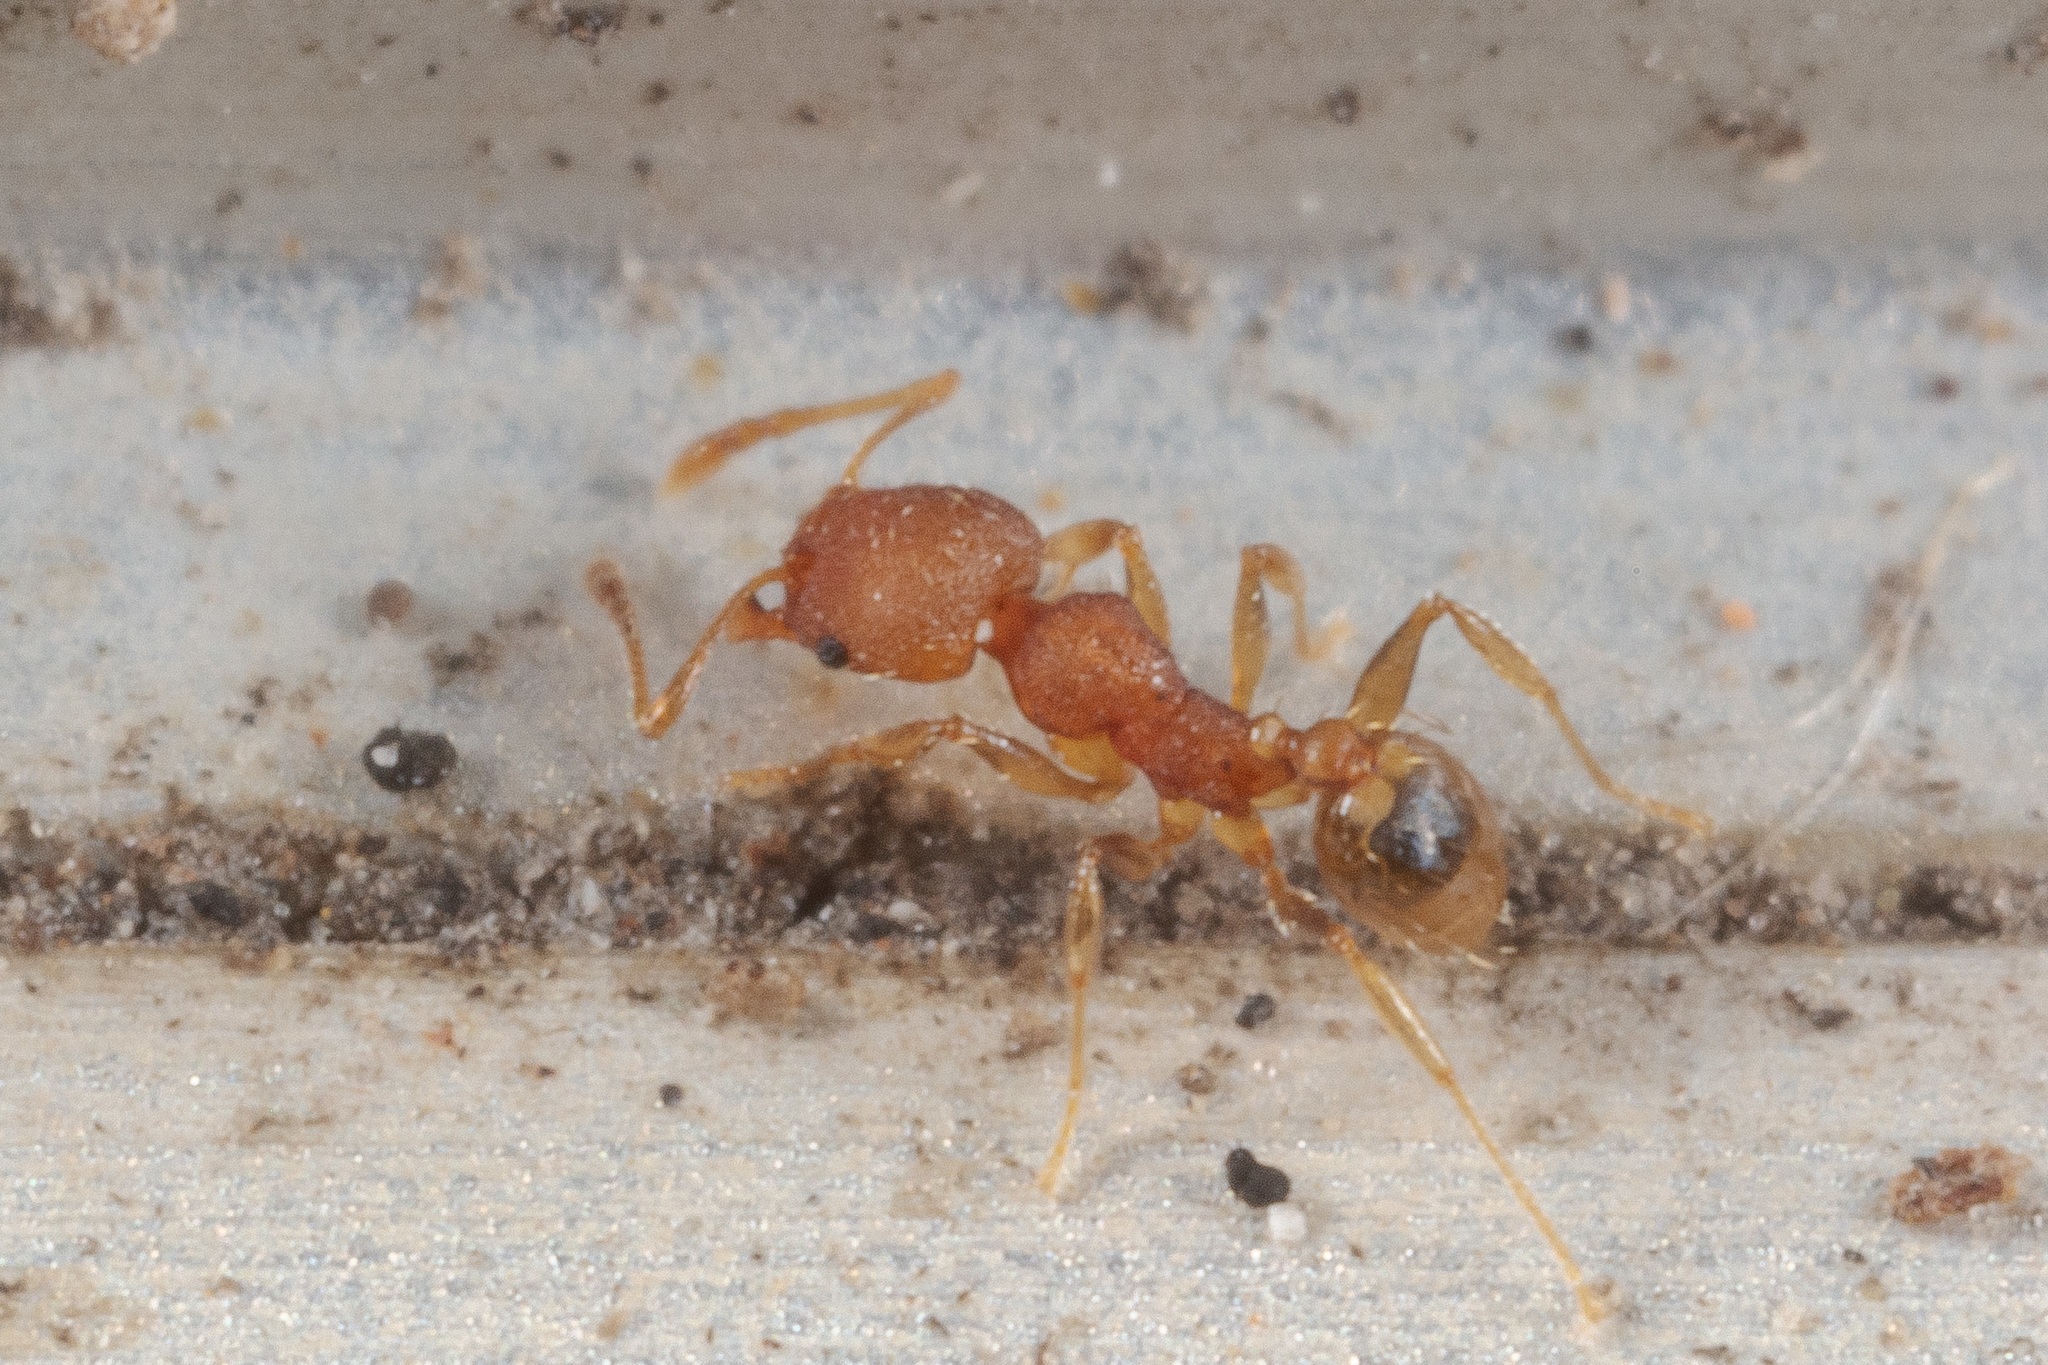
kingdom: Animalia
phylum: Arthropoda
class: Insecta
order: Hymenoptera
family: Formicidae
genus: Pheidole
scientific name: Pheidole bilimeki
